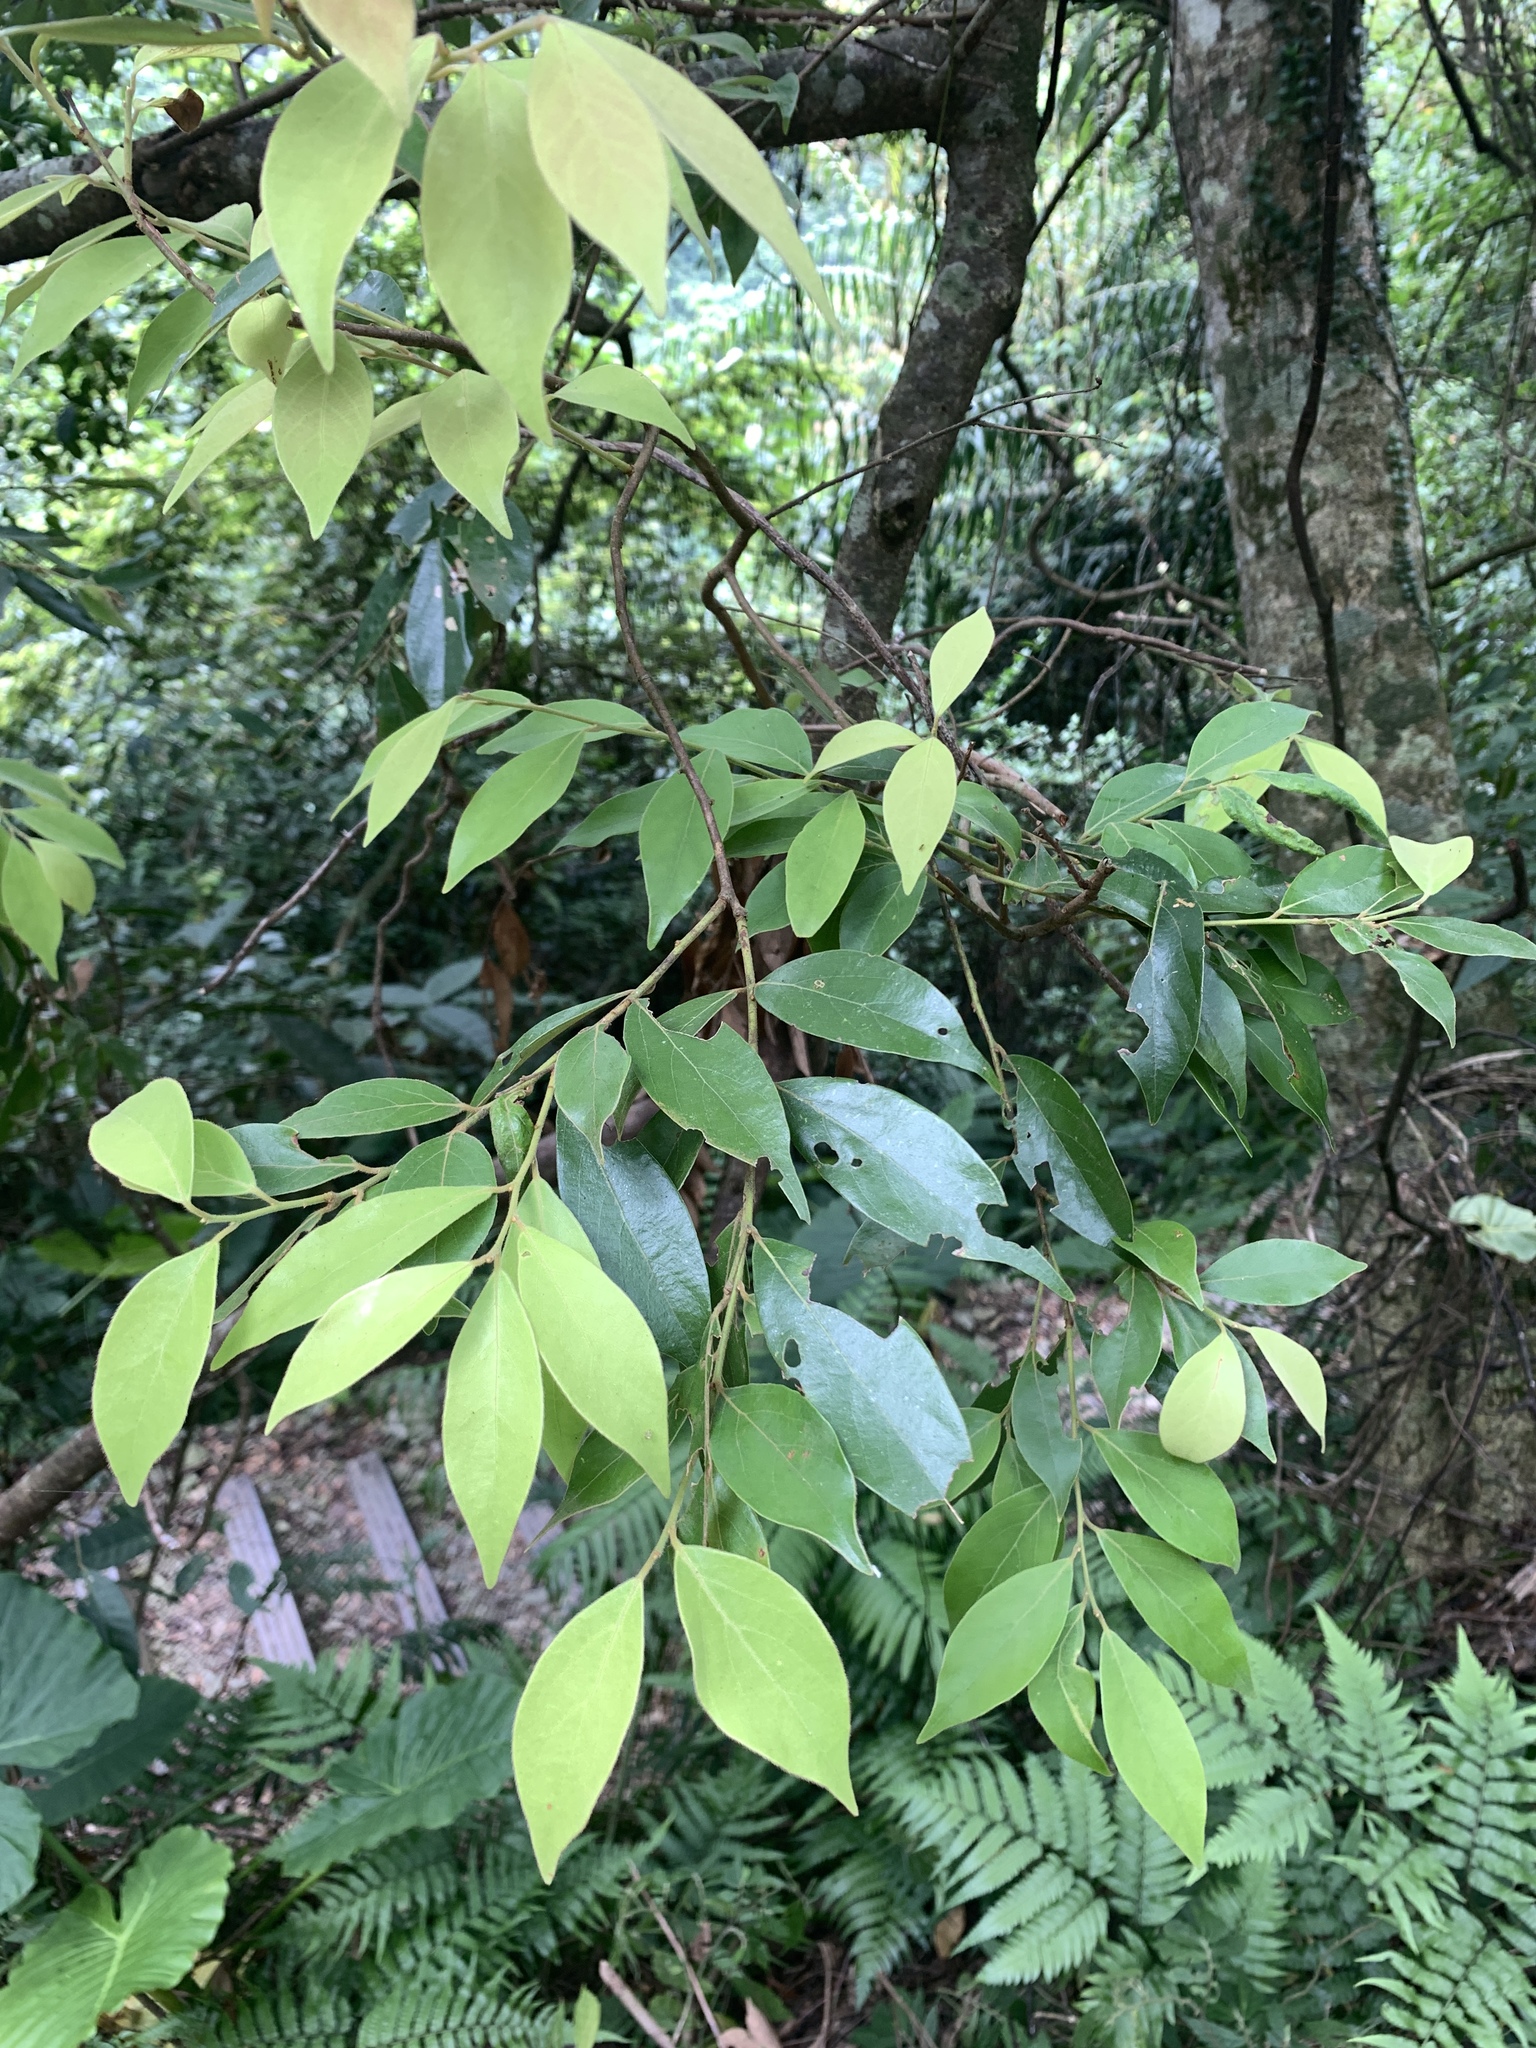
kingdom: Plantae
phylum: Tracheophyta
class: Magnoliopsida
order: Laurales
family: Lauraceae
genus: Lindera
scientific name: Lindera communis
